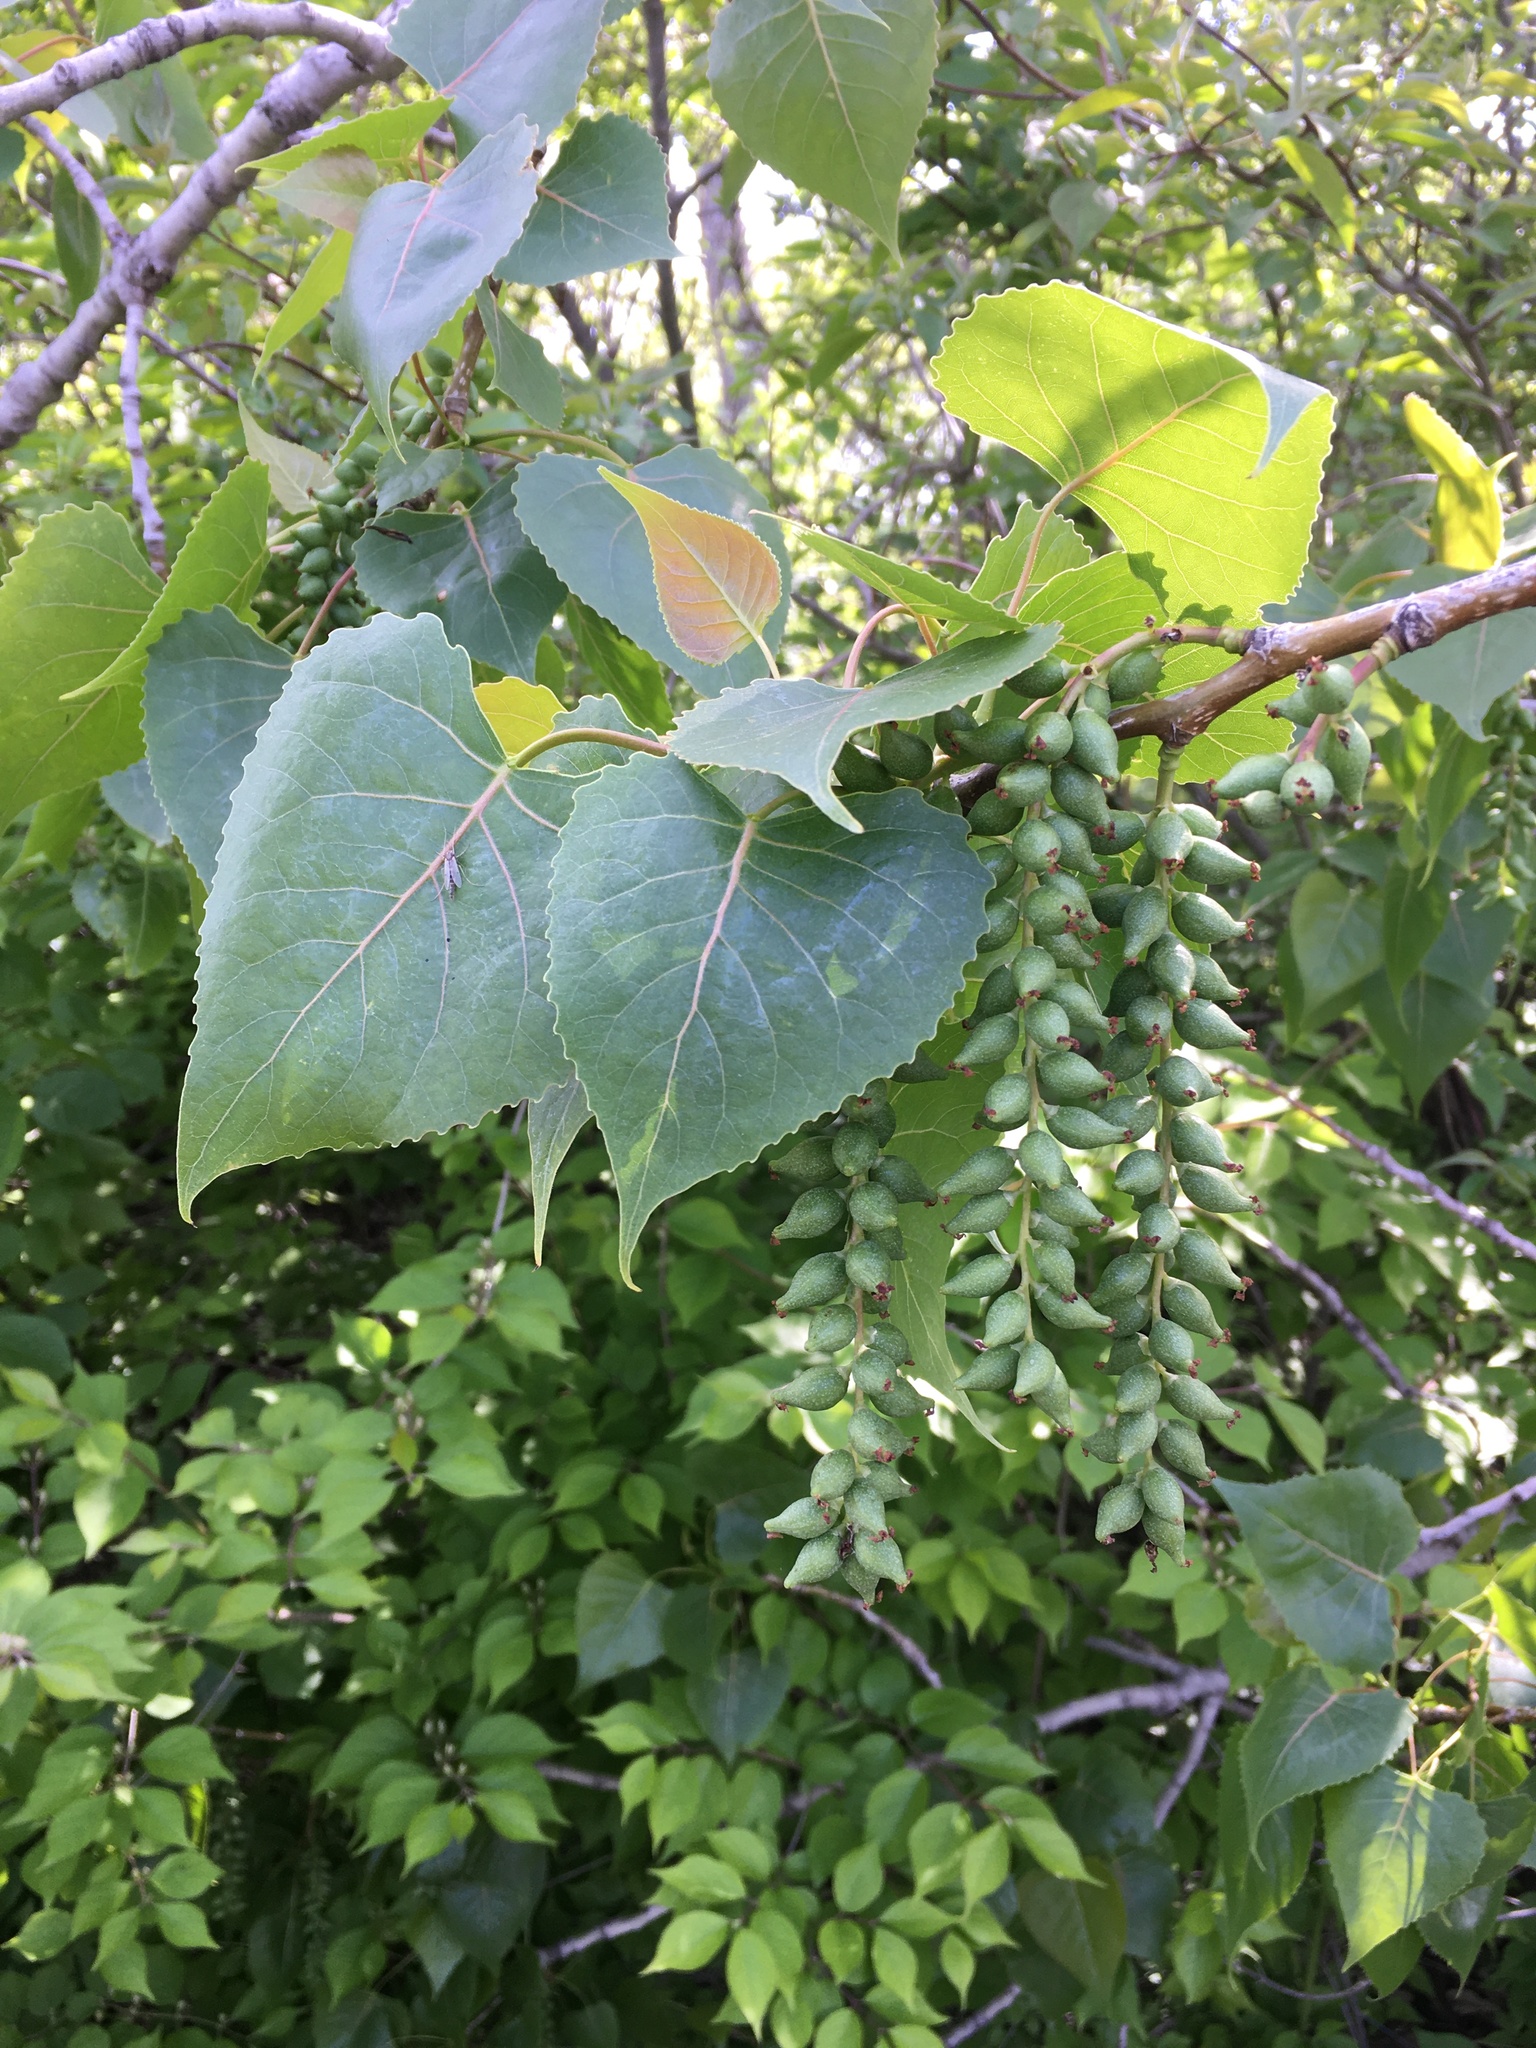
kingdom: Plantae
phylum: Tracheophyta
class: Magnoliopsida
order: Malpighiales
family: Salicaceae
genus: Populus
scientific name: Populus deltoides
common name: Eastern cottonwood
